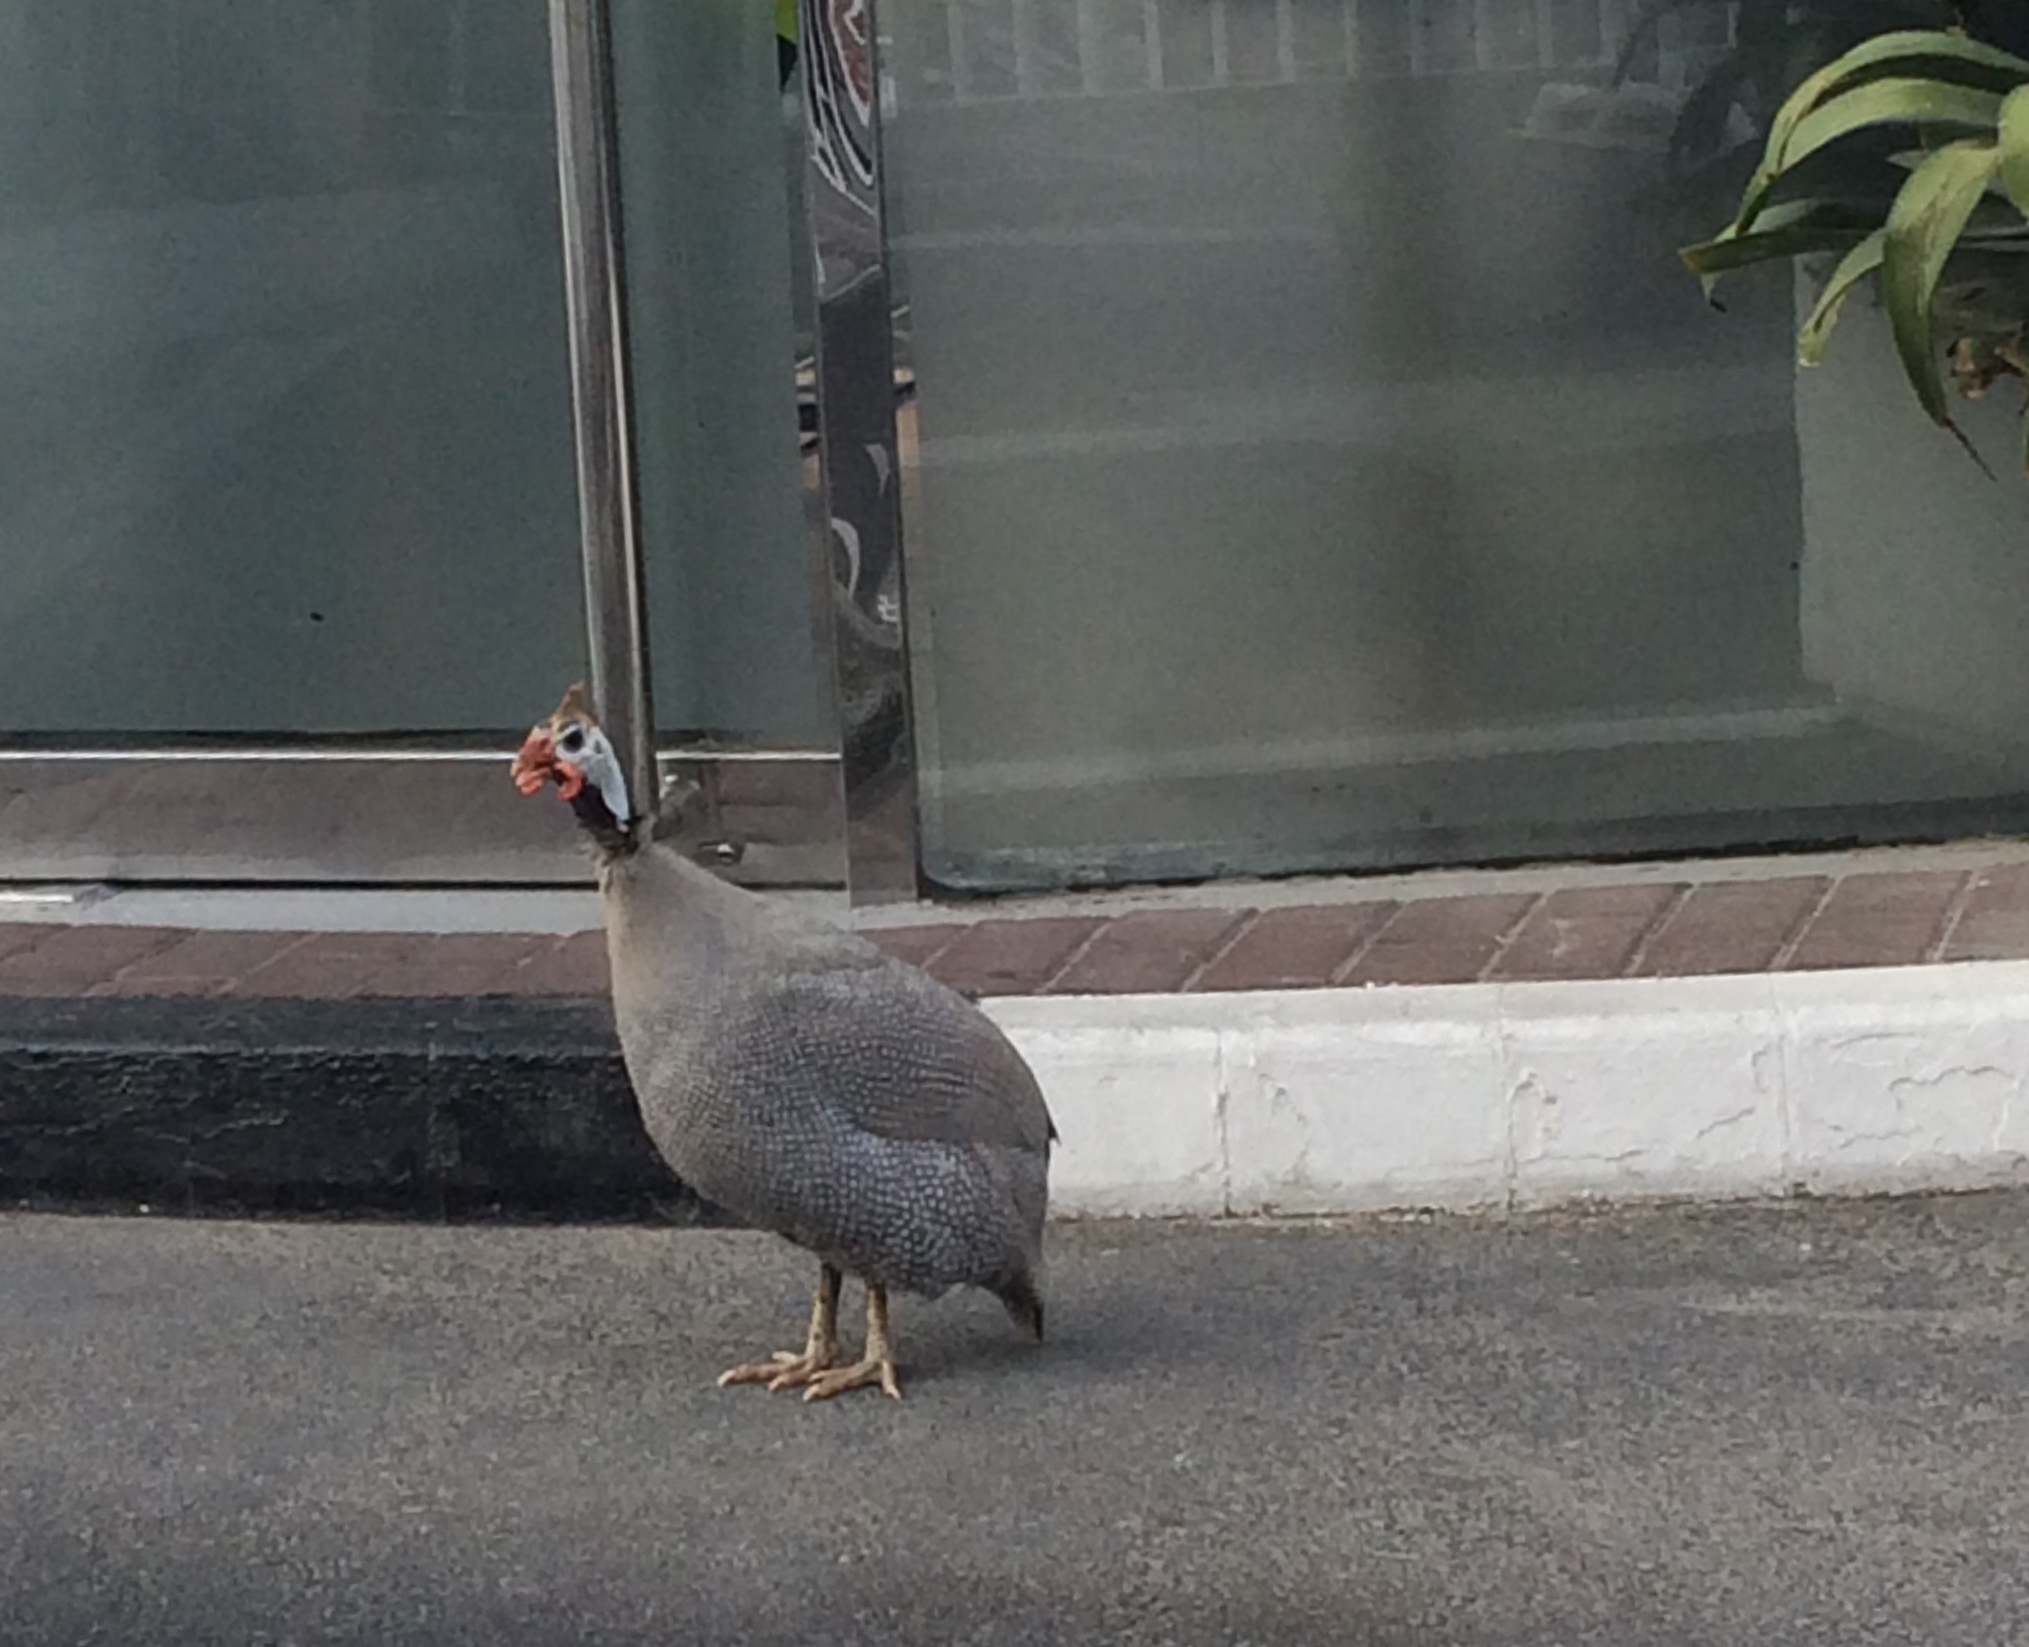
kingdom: Animalia
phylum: Chordata
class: Aves
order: Galliformes
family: Numididae
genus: Numida
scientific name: Numida meleagris
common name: Helmeted guineafowl
